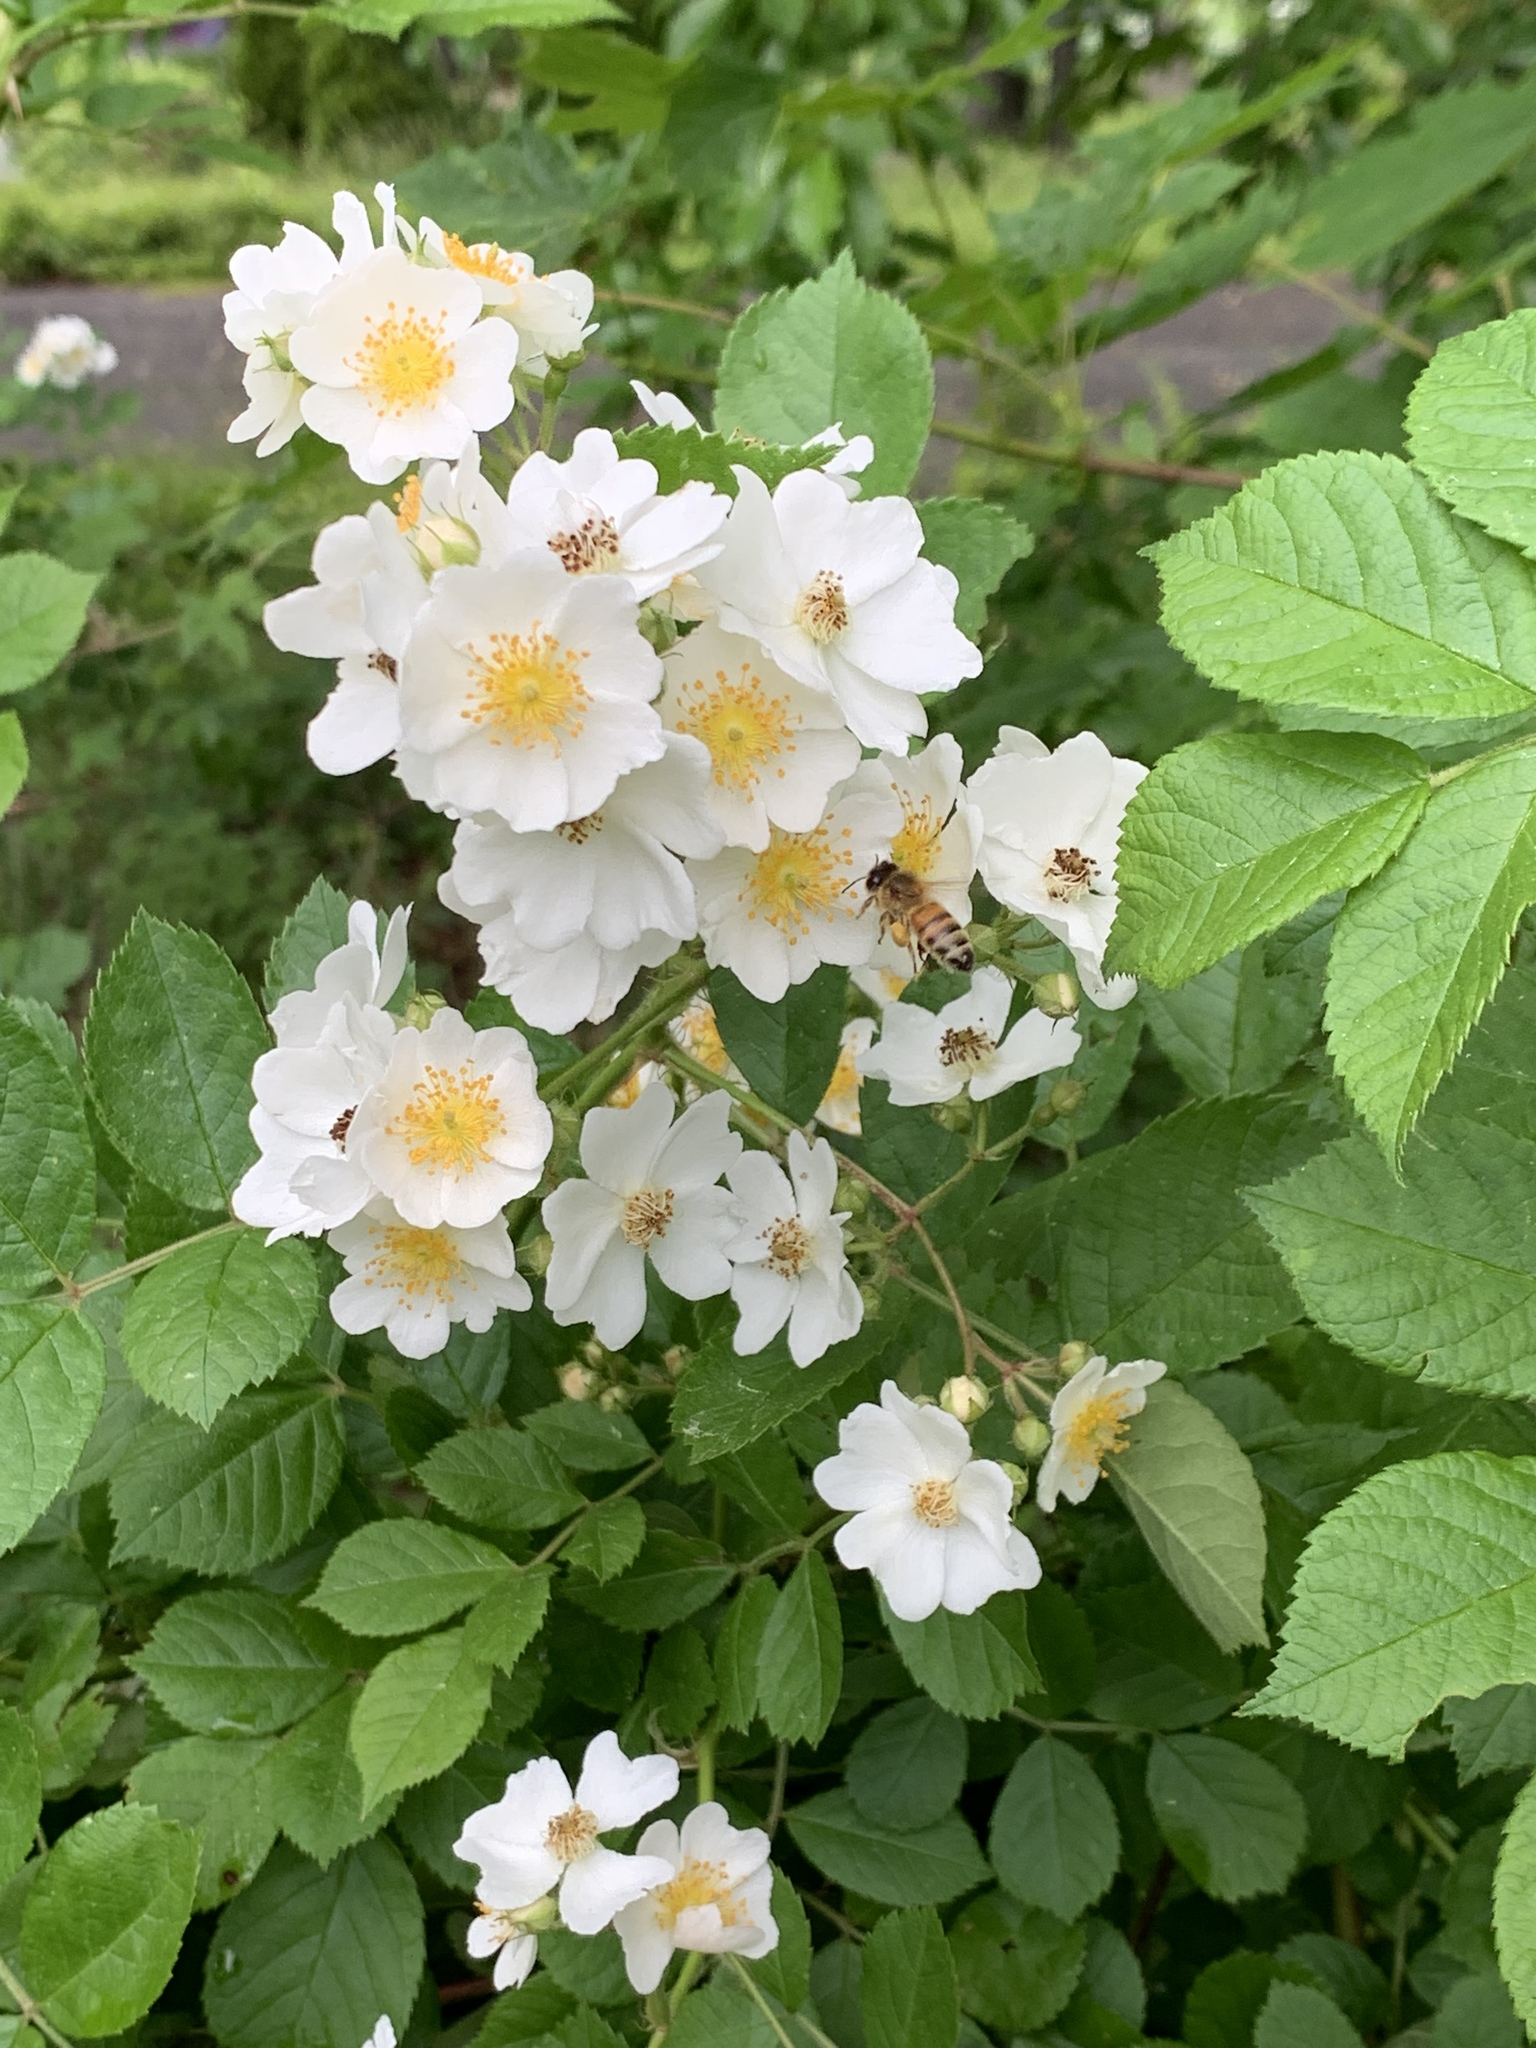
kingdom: Plantae
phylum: Tracheophyta
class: Magnoliopsida
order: Rosales
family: Rosaceae
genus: Rosa
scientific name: Rosa multiflora
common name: Multiflora rose
